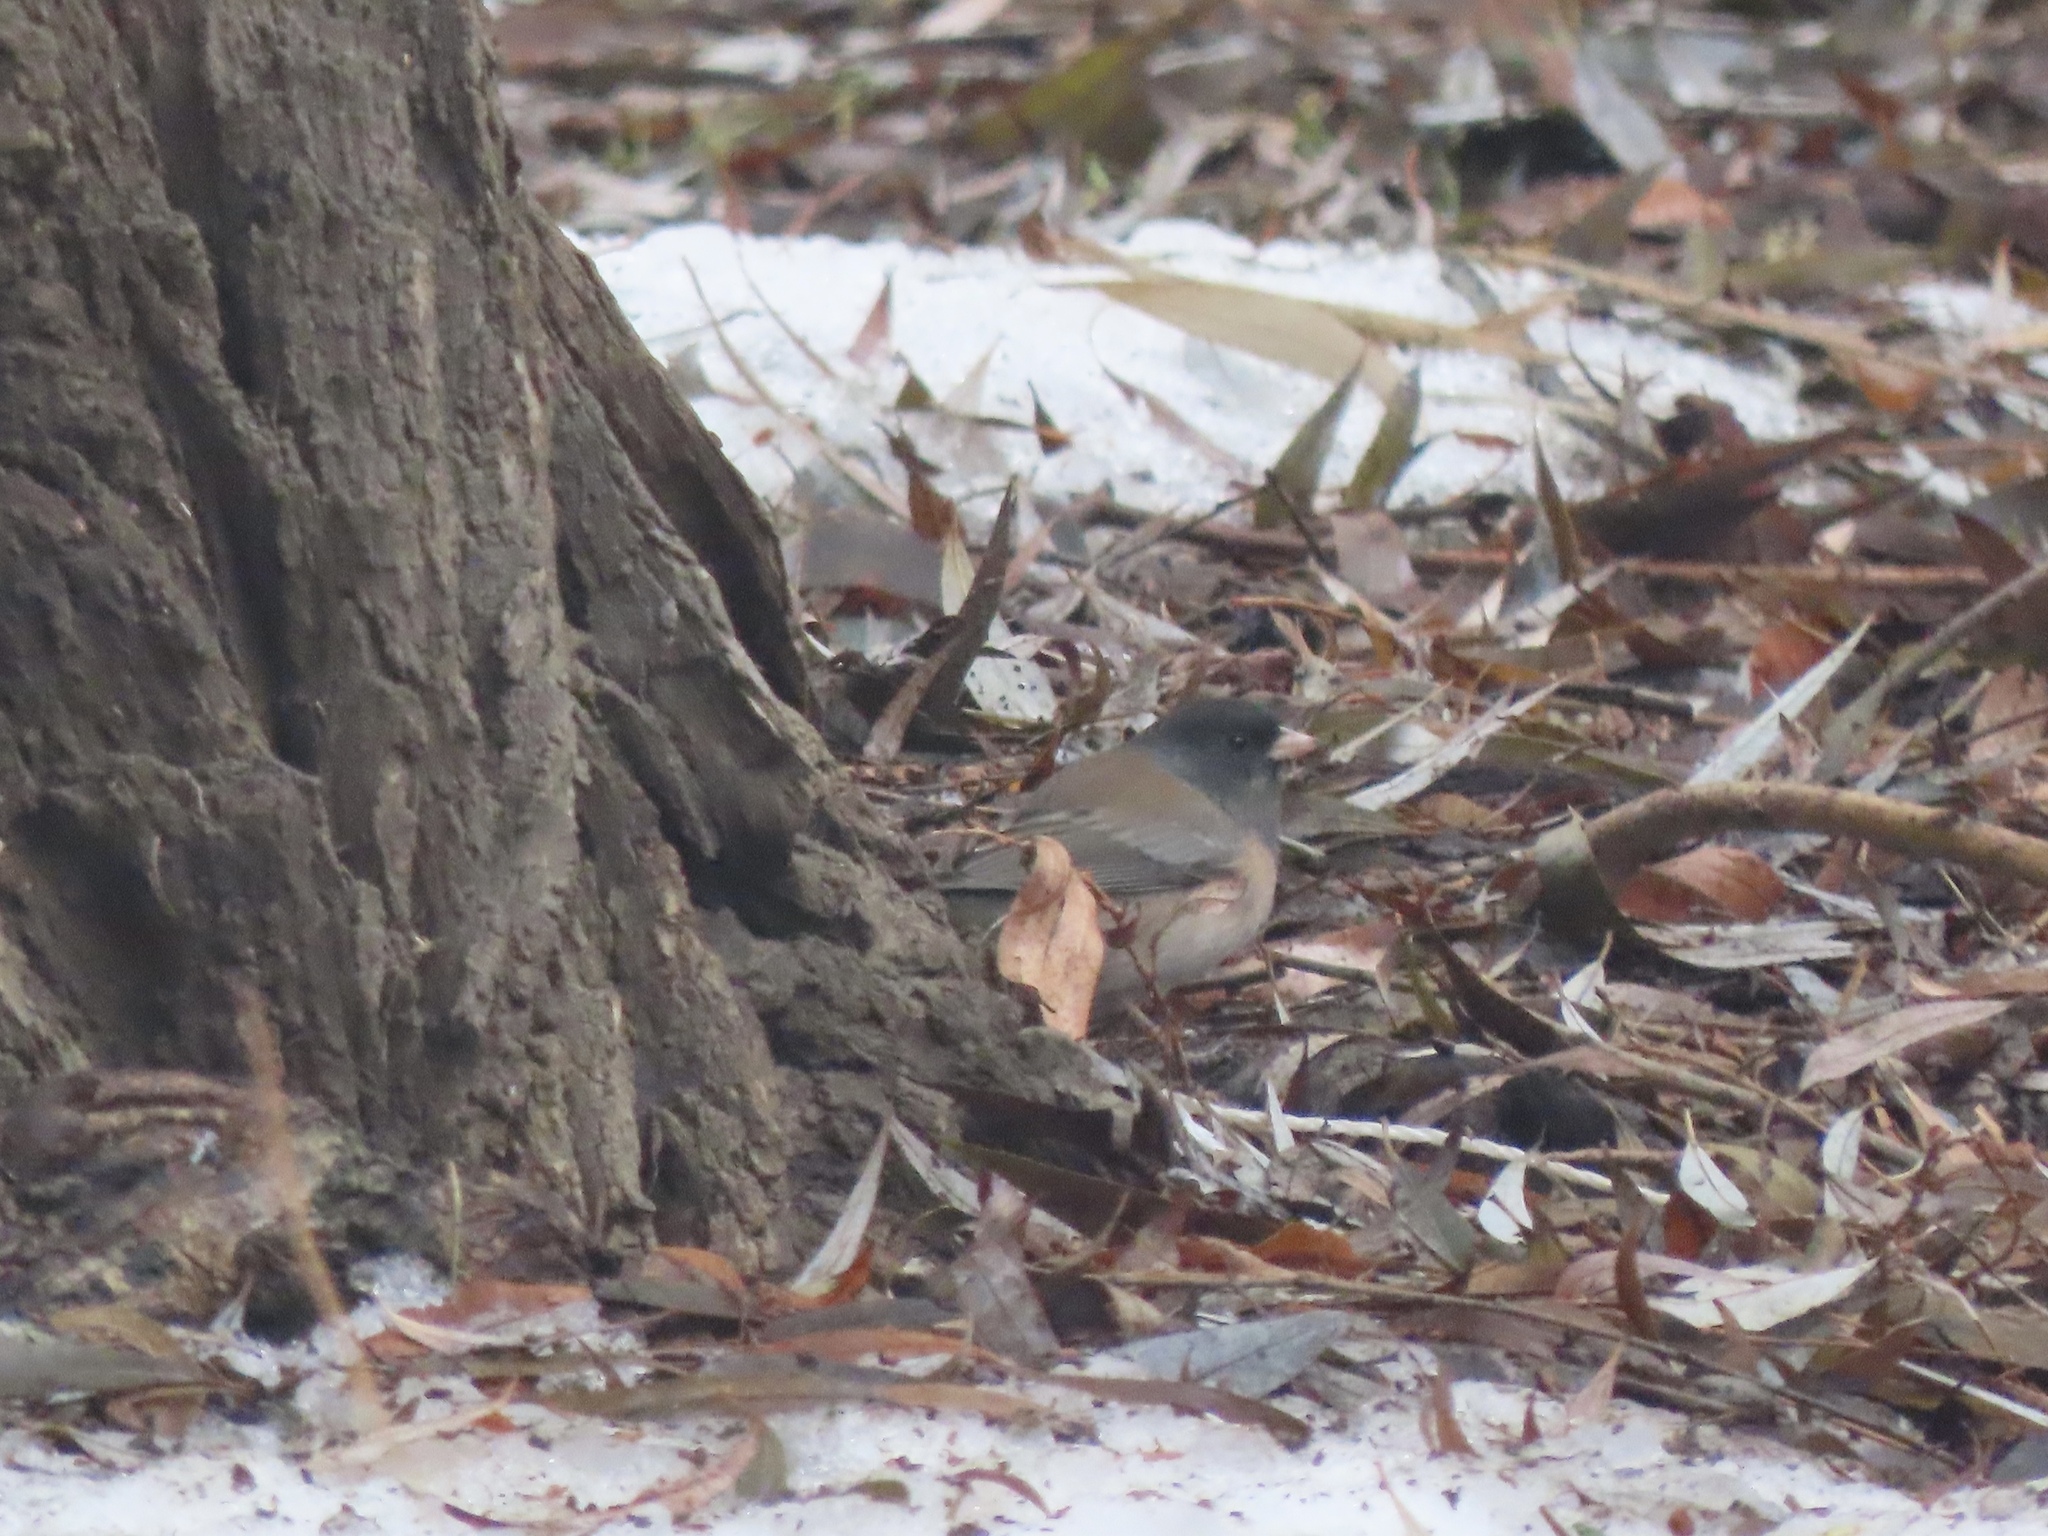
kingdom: Animalia
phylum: Chordata
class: Aves
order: Passeriformes
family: Passerellidae
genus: Junco
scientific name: Junco hyemalis
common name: Dark-eyed junco
